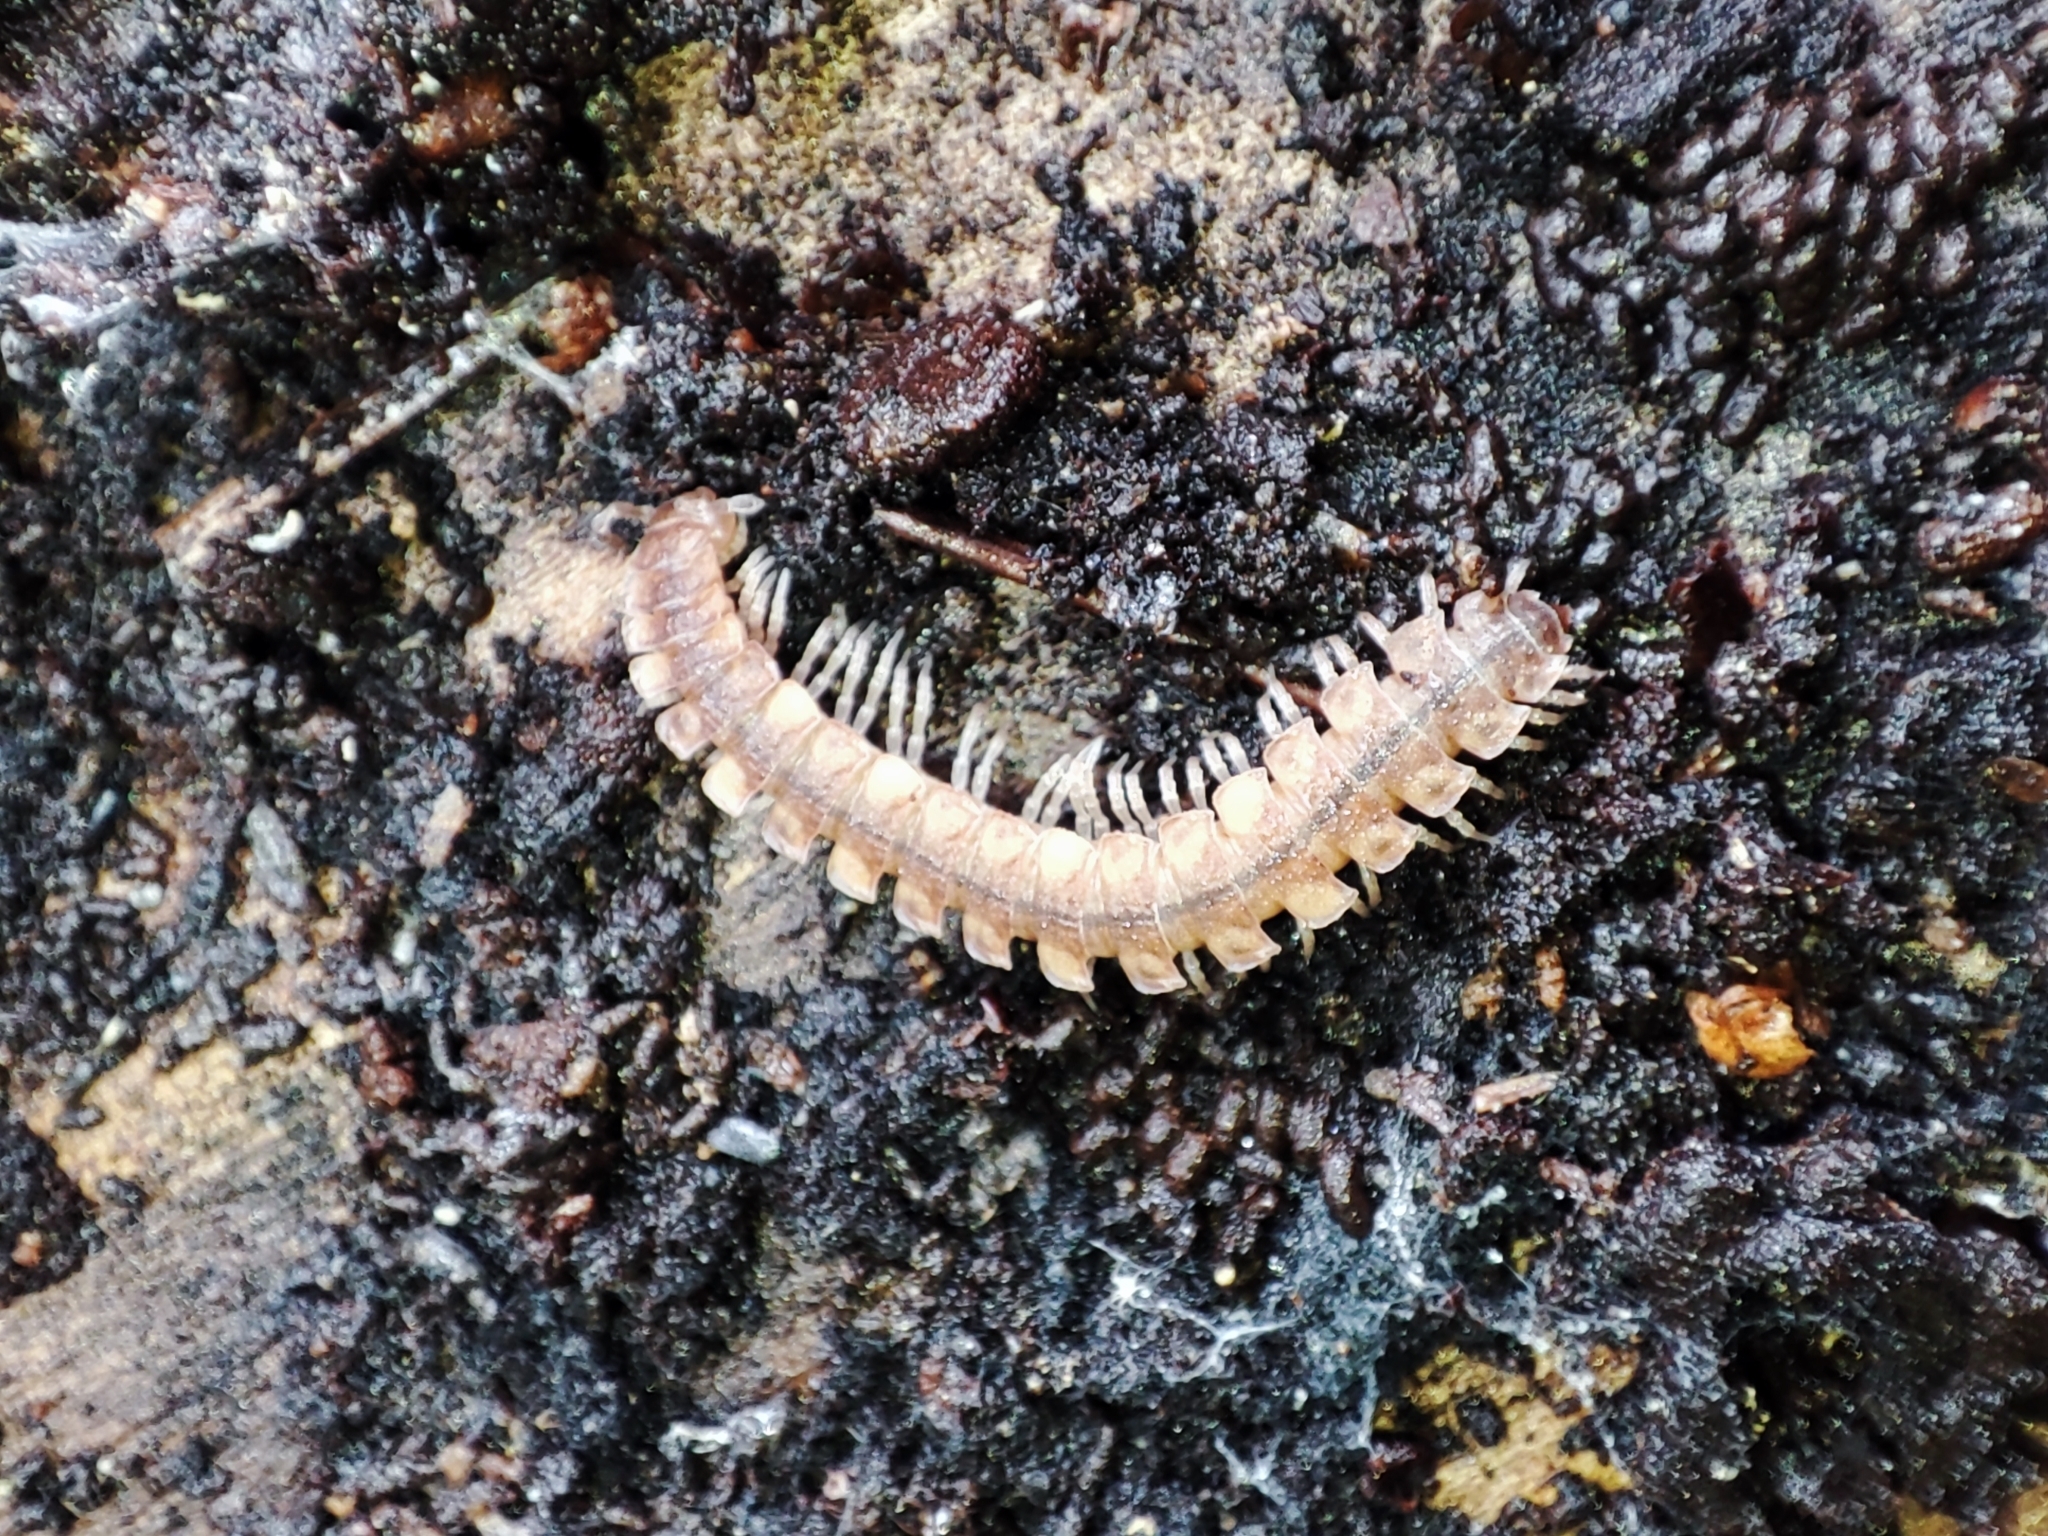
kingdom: Animalia
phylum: Arthropoda
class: Diplopoda
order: Polydesmida
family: Polydesmidae
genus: Polydesmus
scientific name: Polydesmus complanatus
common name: Flat-backed millipede
